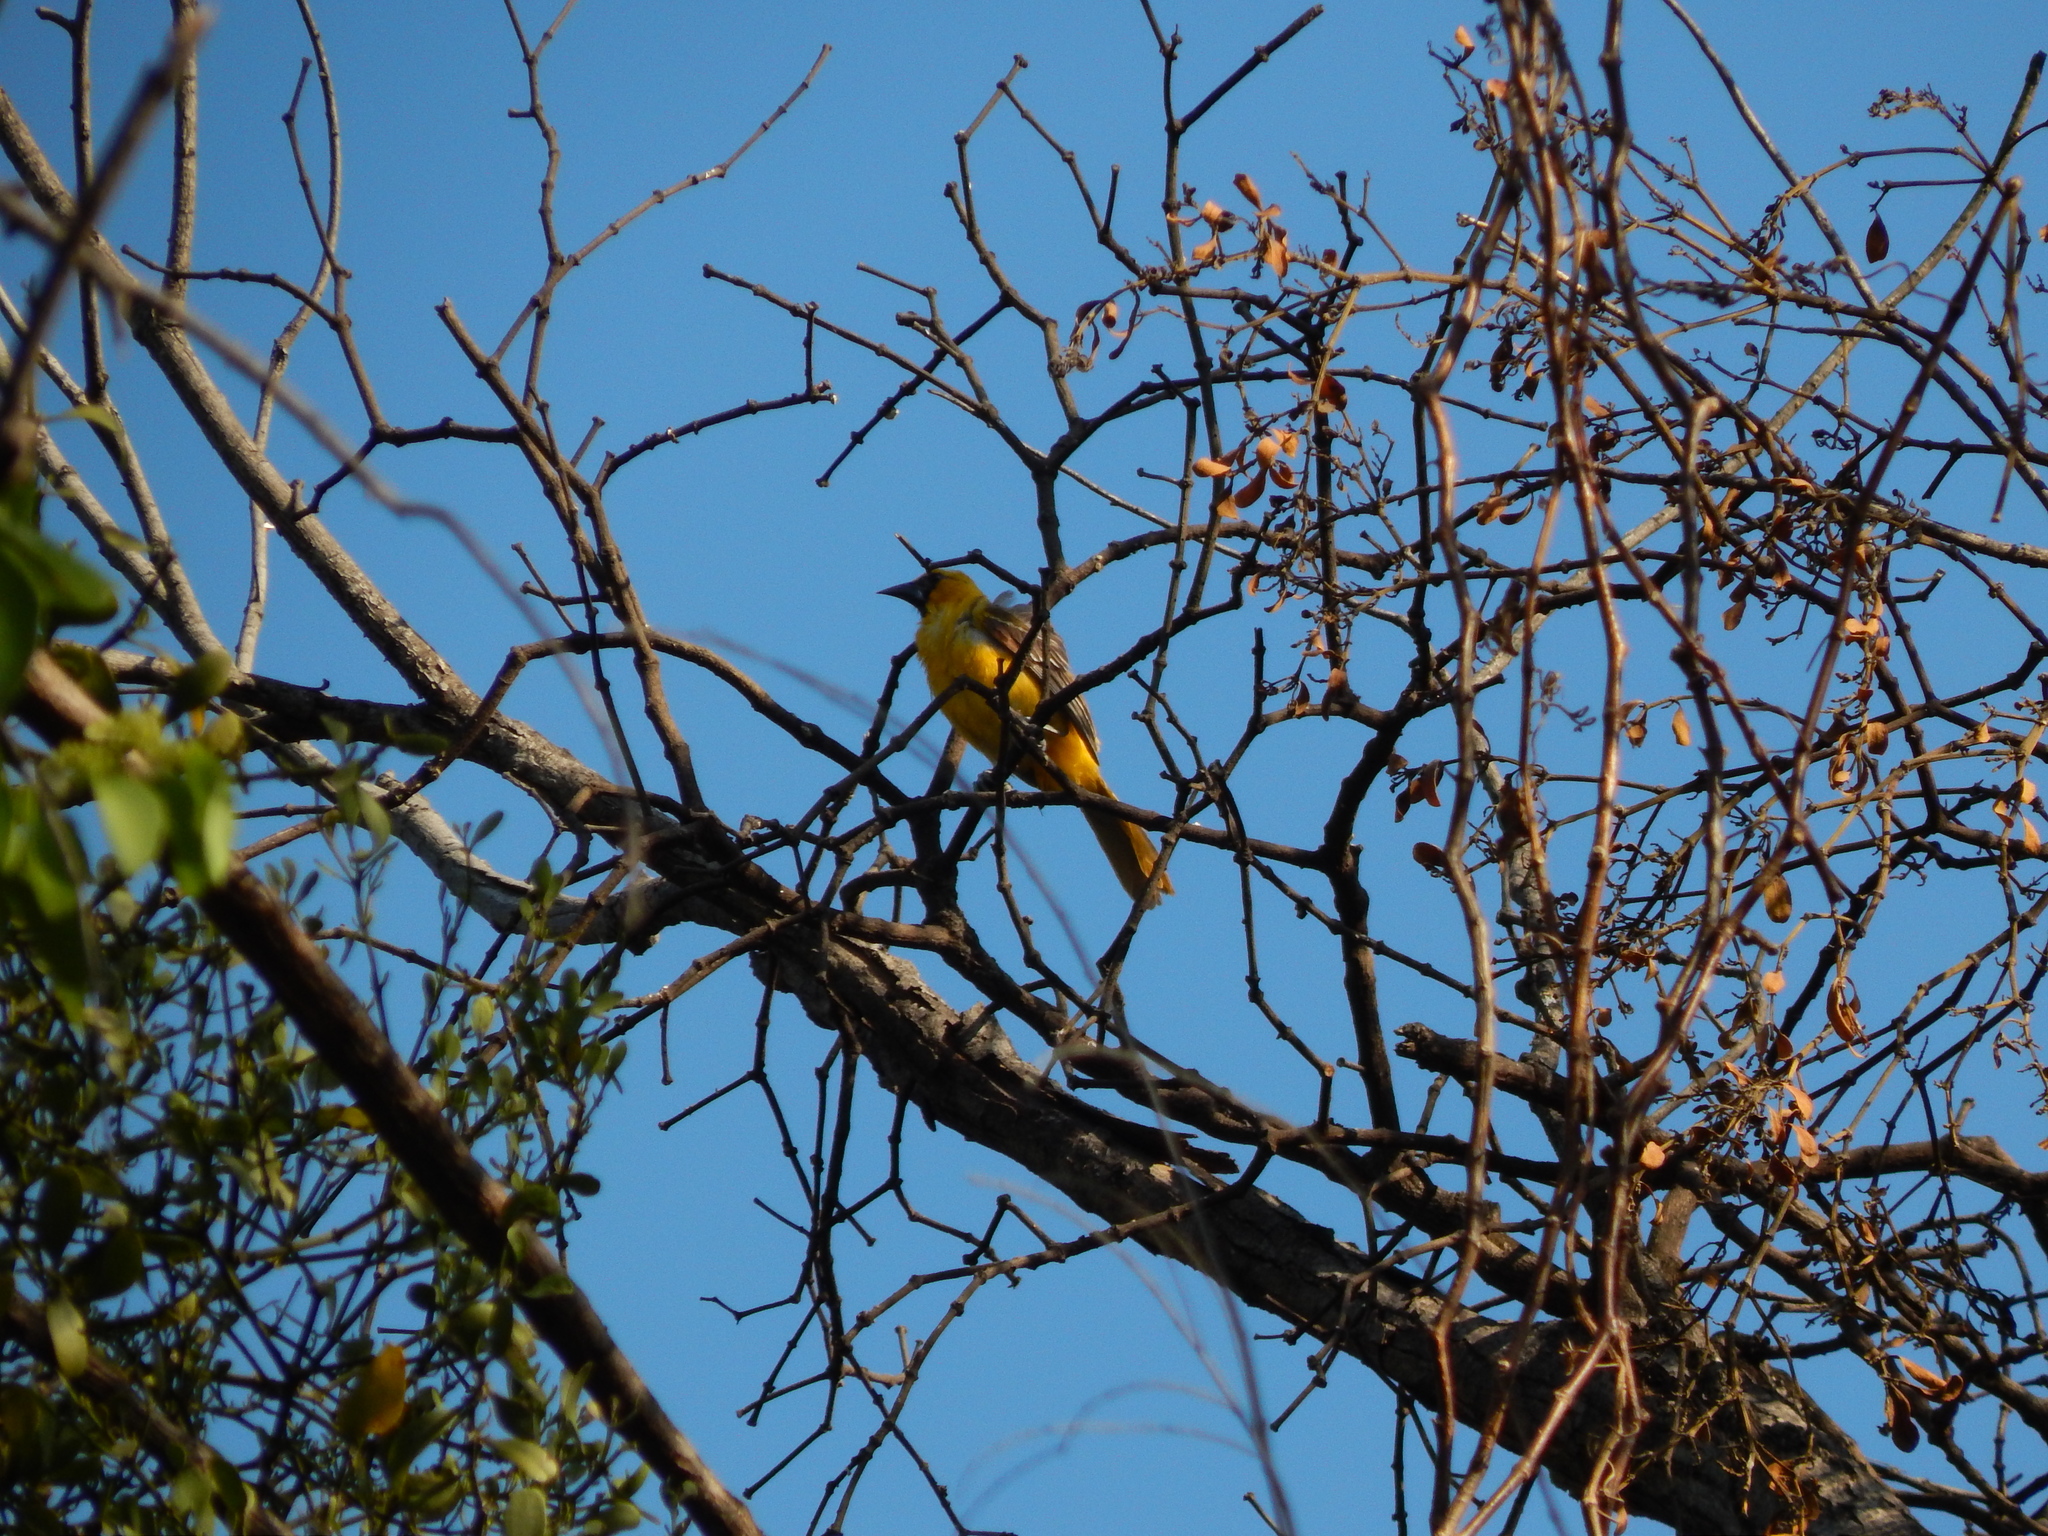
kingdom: Animalia
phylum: Chordata
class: Aves
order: Passeriformes
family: Icteridae
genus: Icterus
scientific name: Icterus gularis
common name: Altamira oriole
